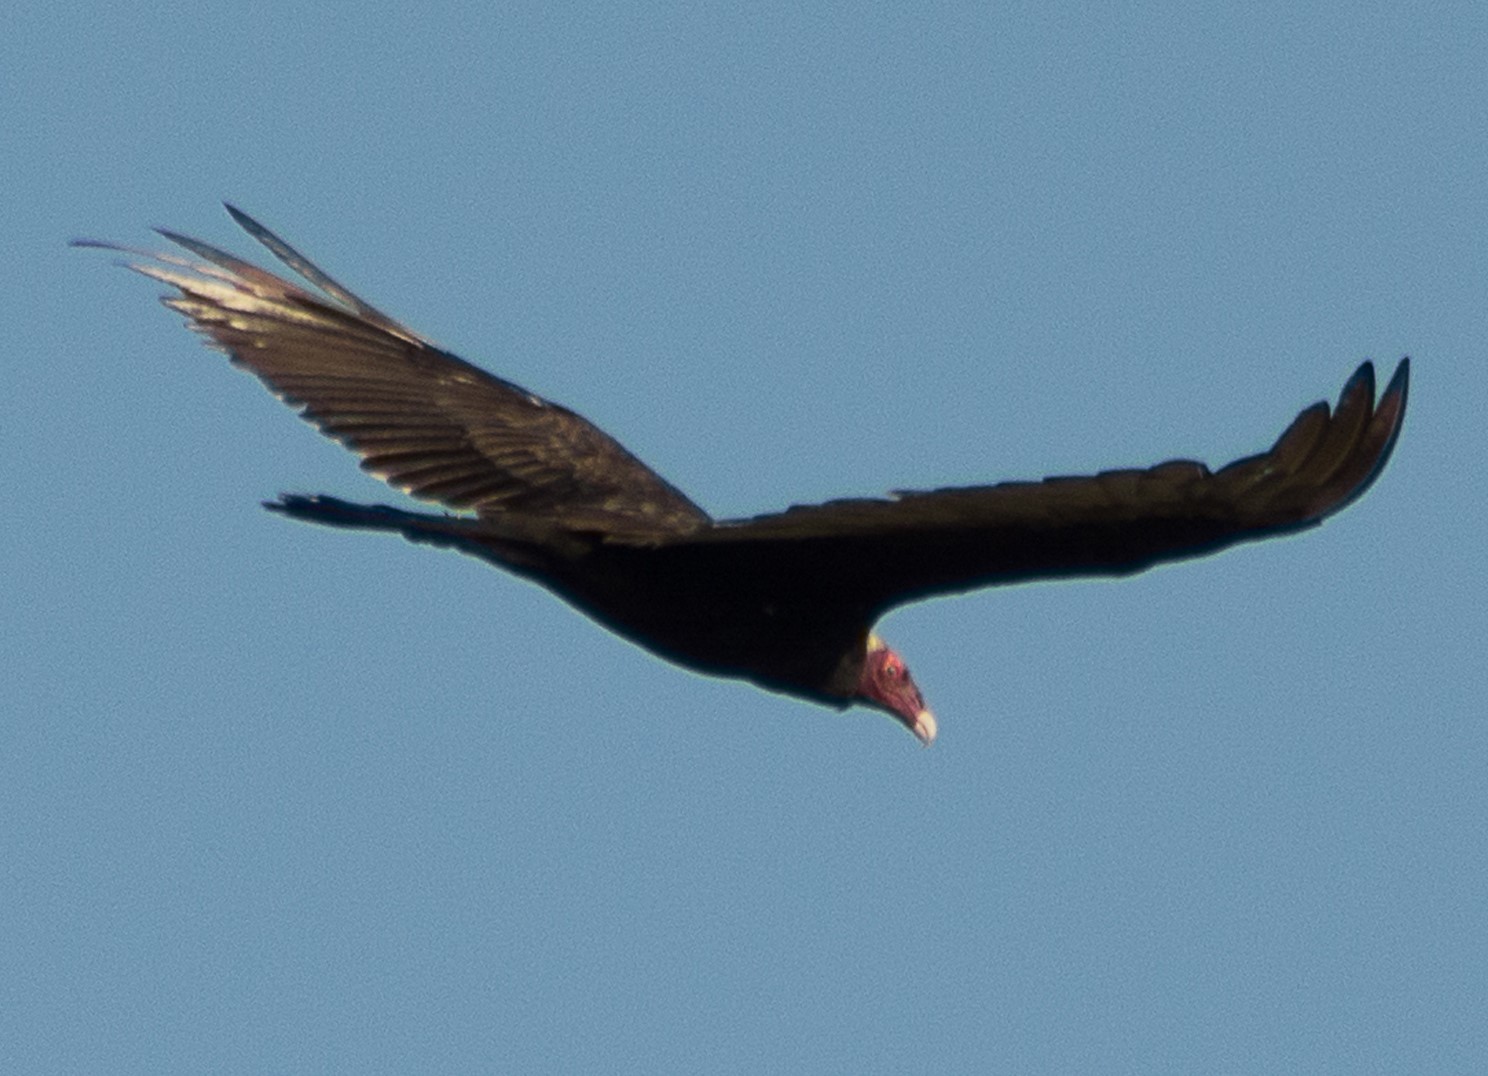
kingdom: Animalia
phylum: Chordata
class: Aves
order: Accipitriformes
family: Cathartidae
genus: Cathartes
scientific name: Cathartes aura
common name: Turkey vulture
